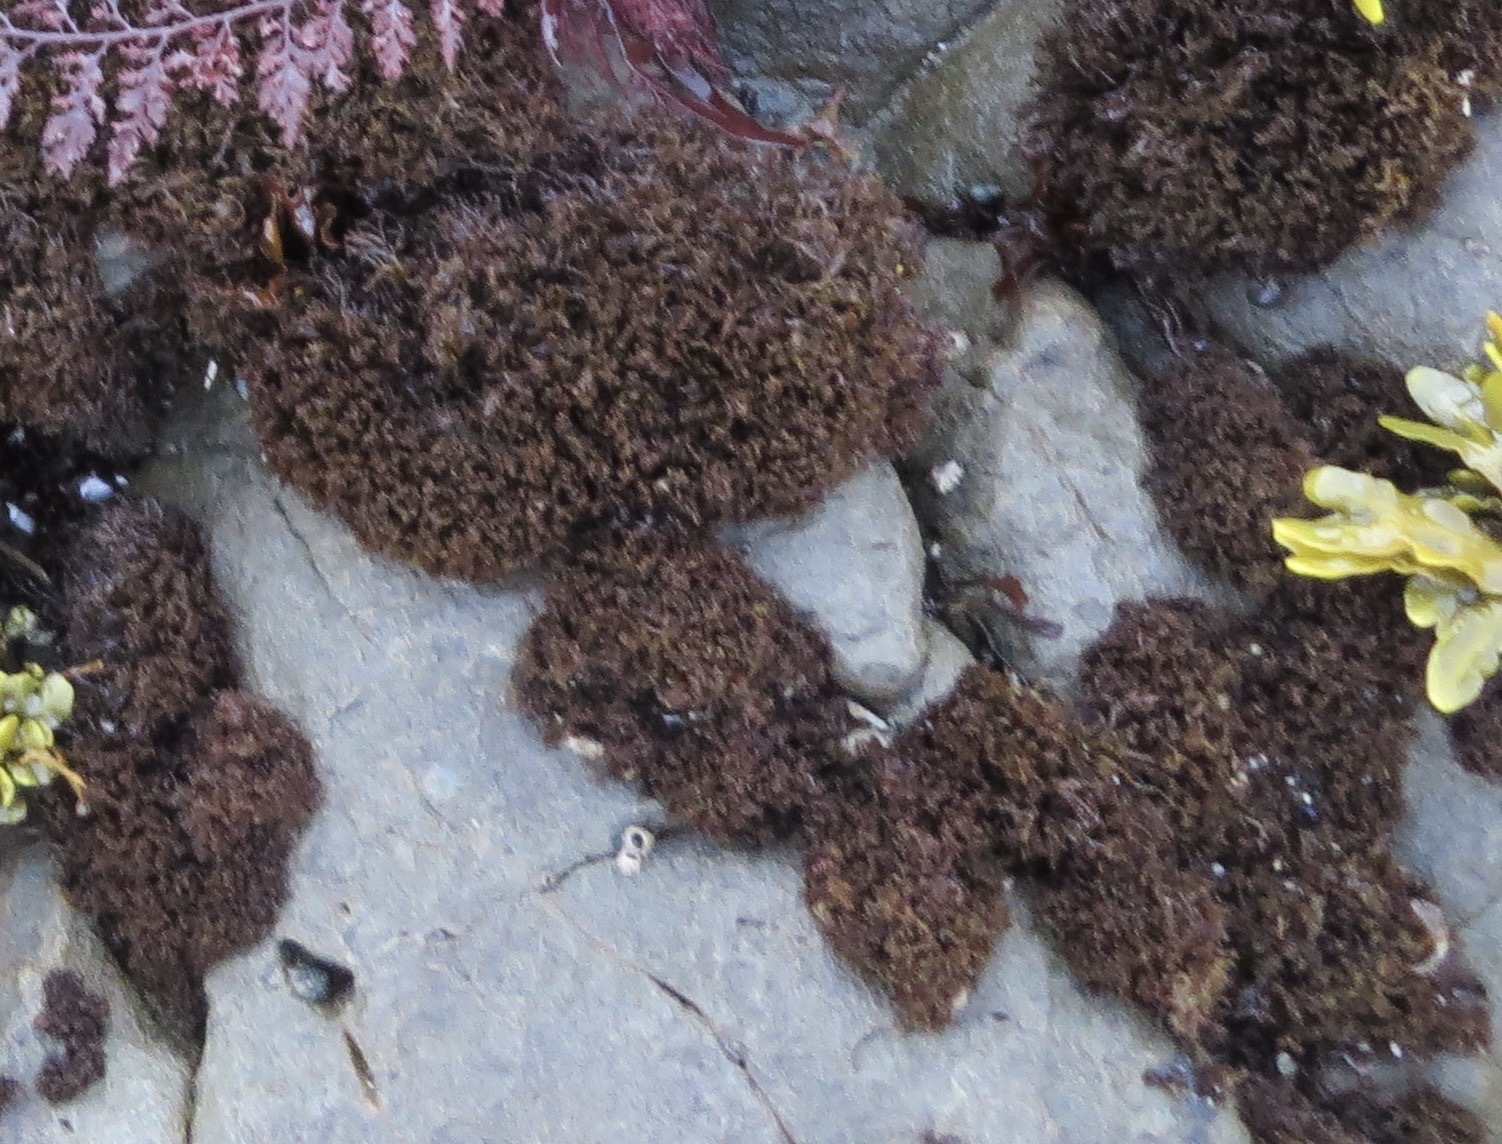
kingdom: Plantae
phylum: Rhodophyta
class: Florideophyceae
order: Gigartinales
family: Endocladiaceae
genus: Endocladia
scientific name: Endocladia muricata
